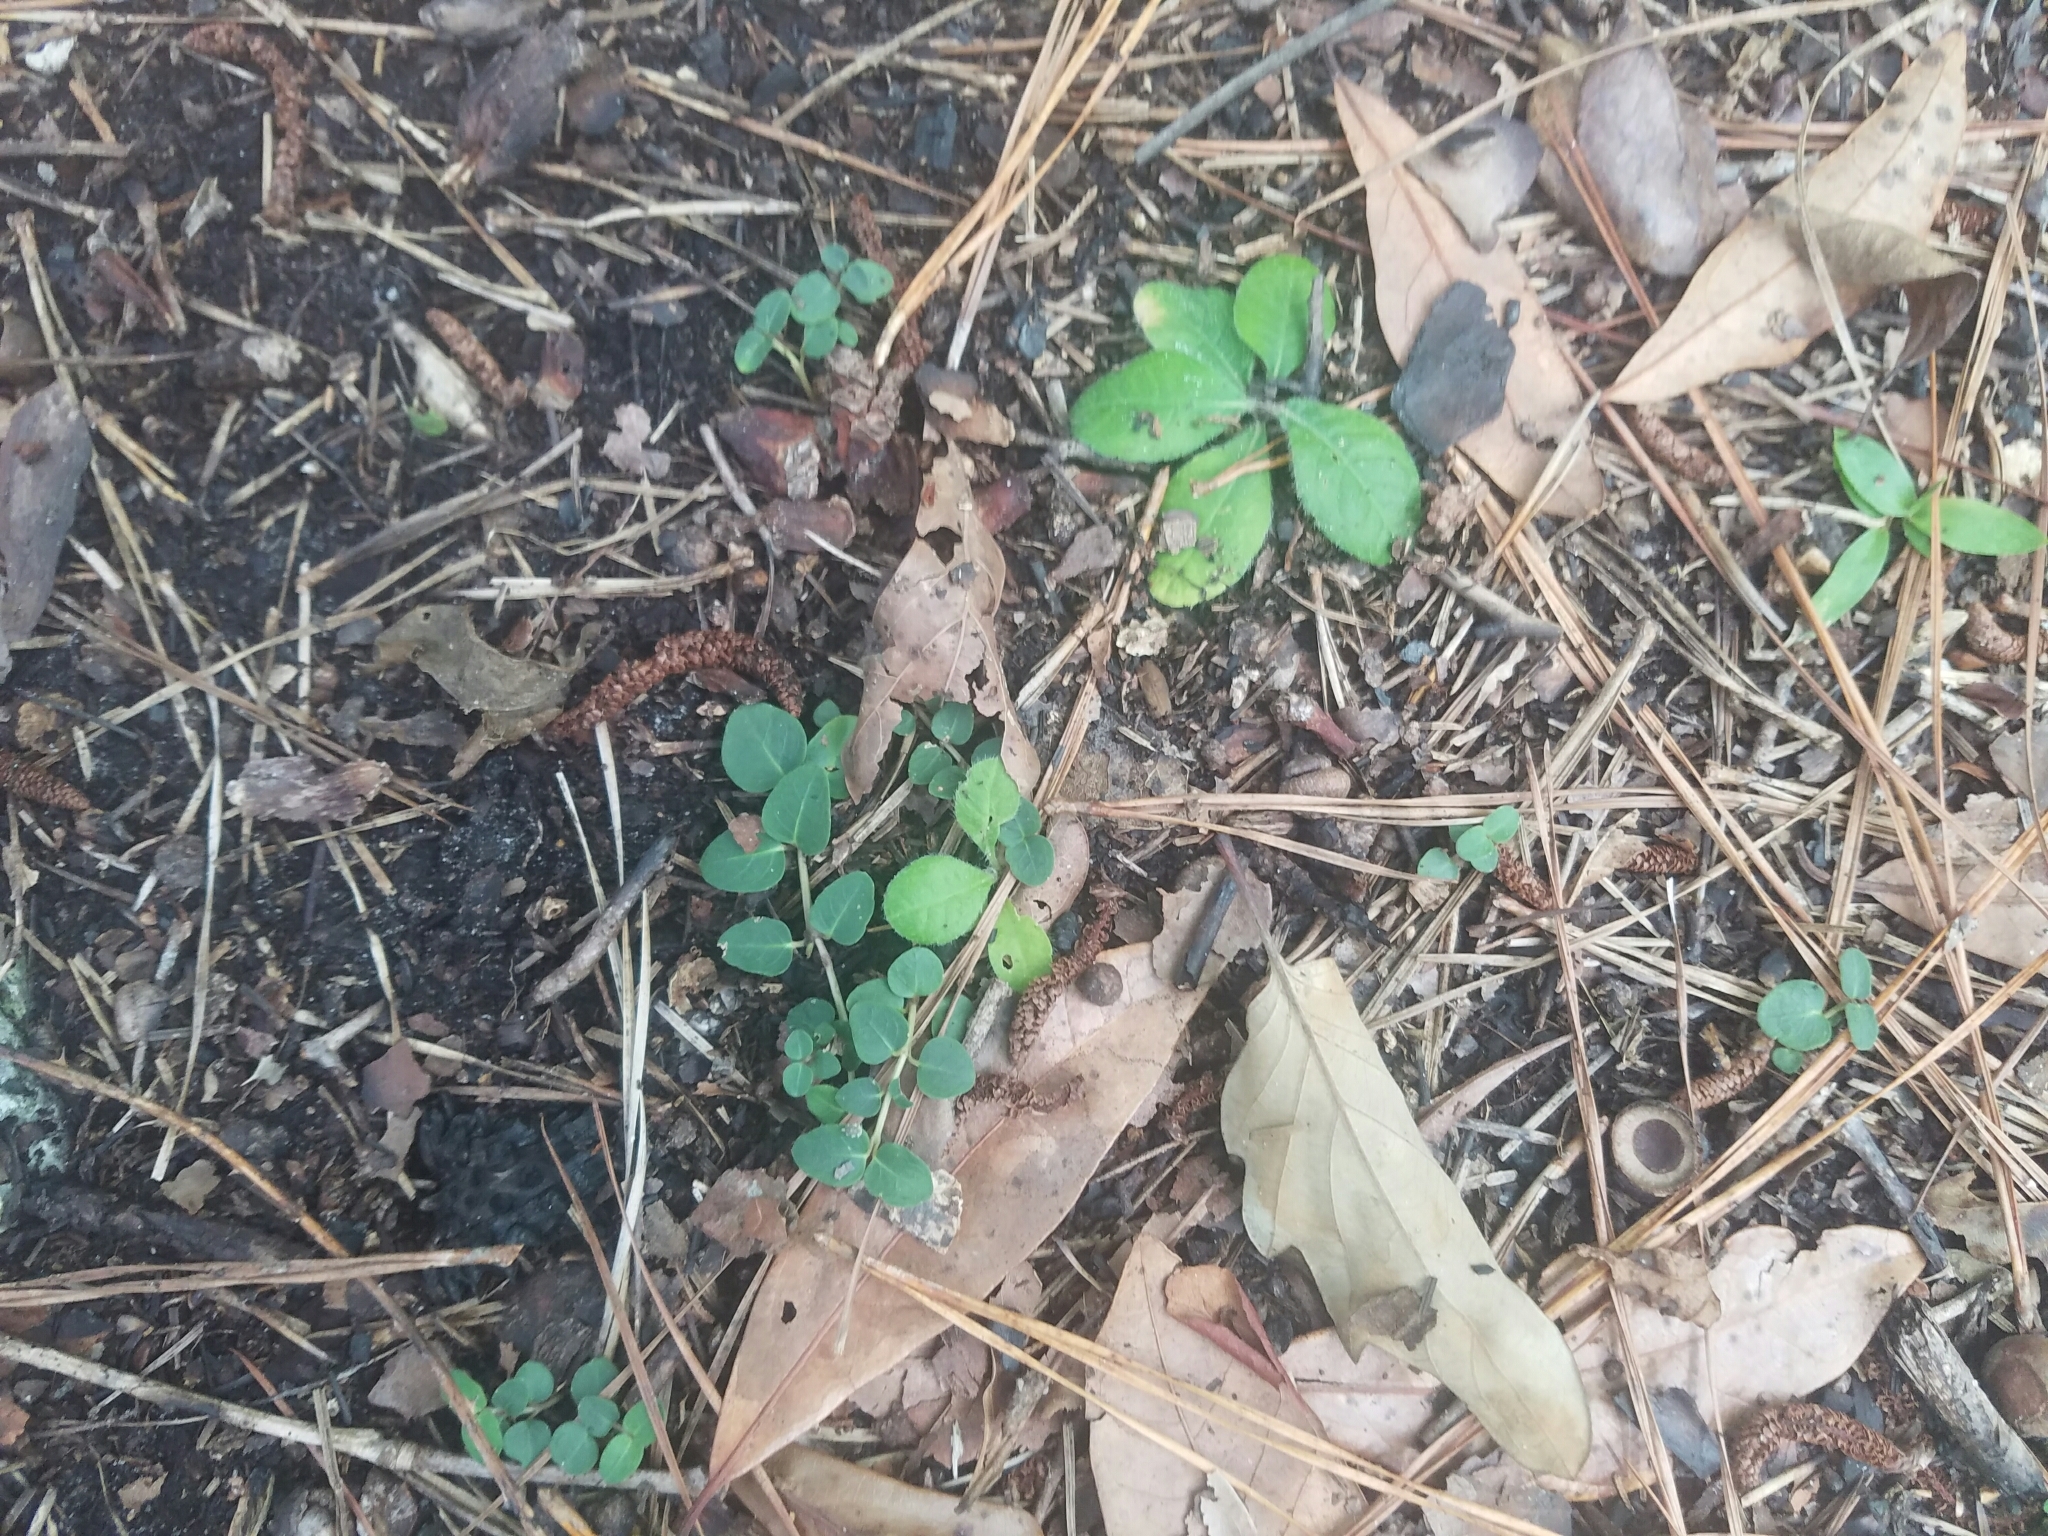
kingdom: Plantae
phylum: Tracheophyta
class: Magnoliopsida
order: Gentianales
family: Rubiaceae
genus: Mitchella
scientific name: Mitchella repens
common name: Partridge-berry
